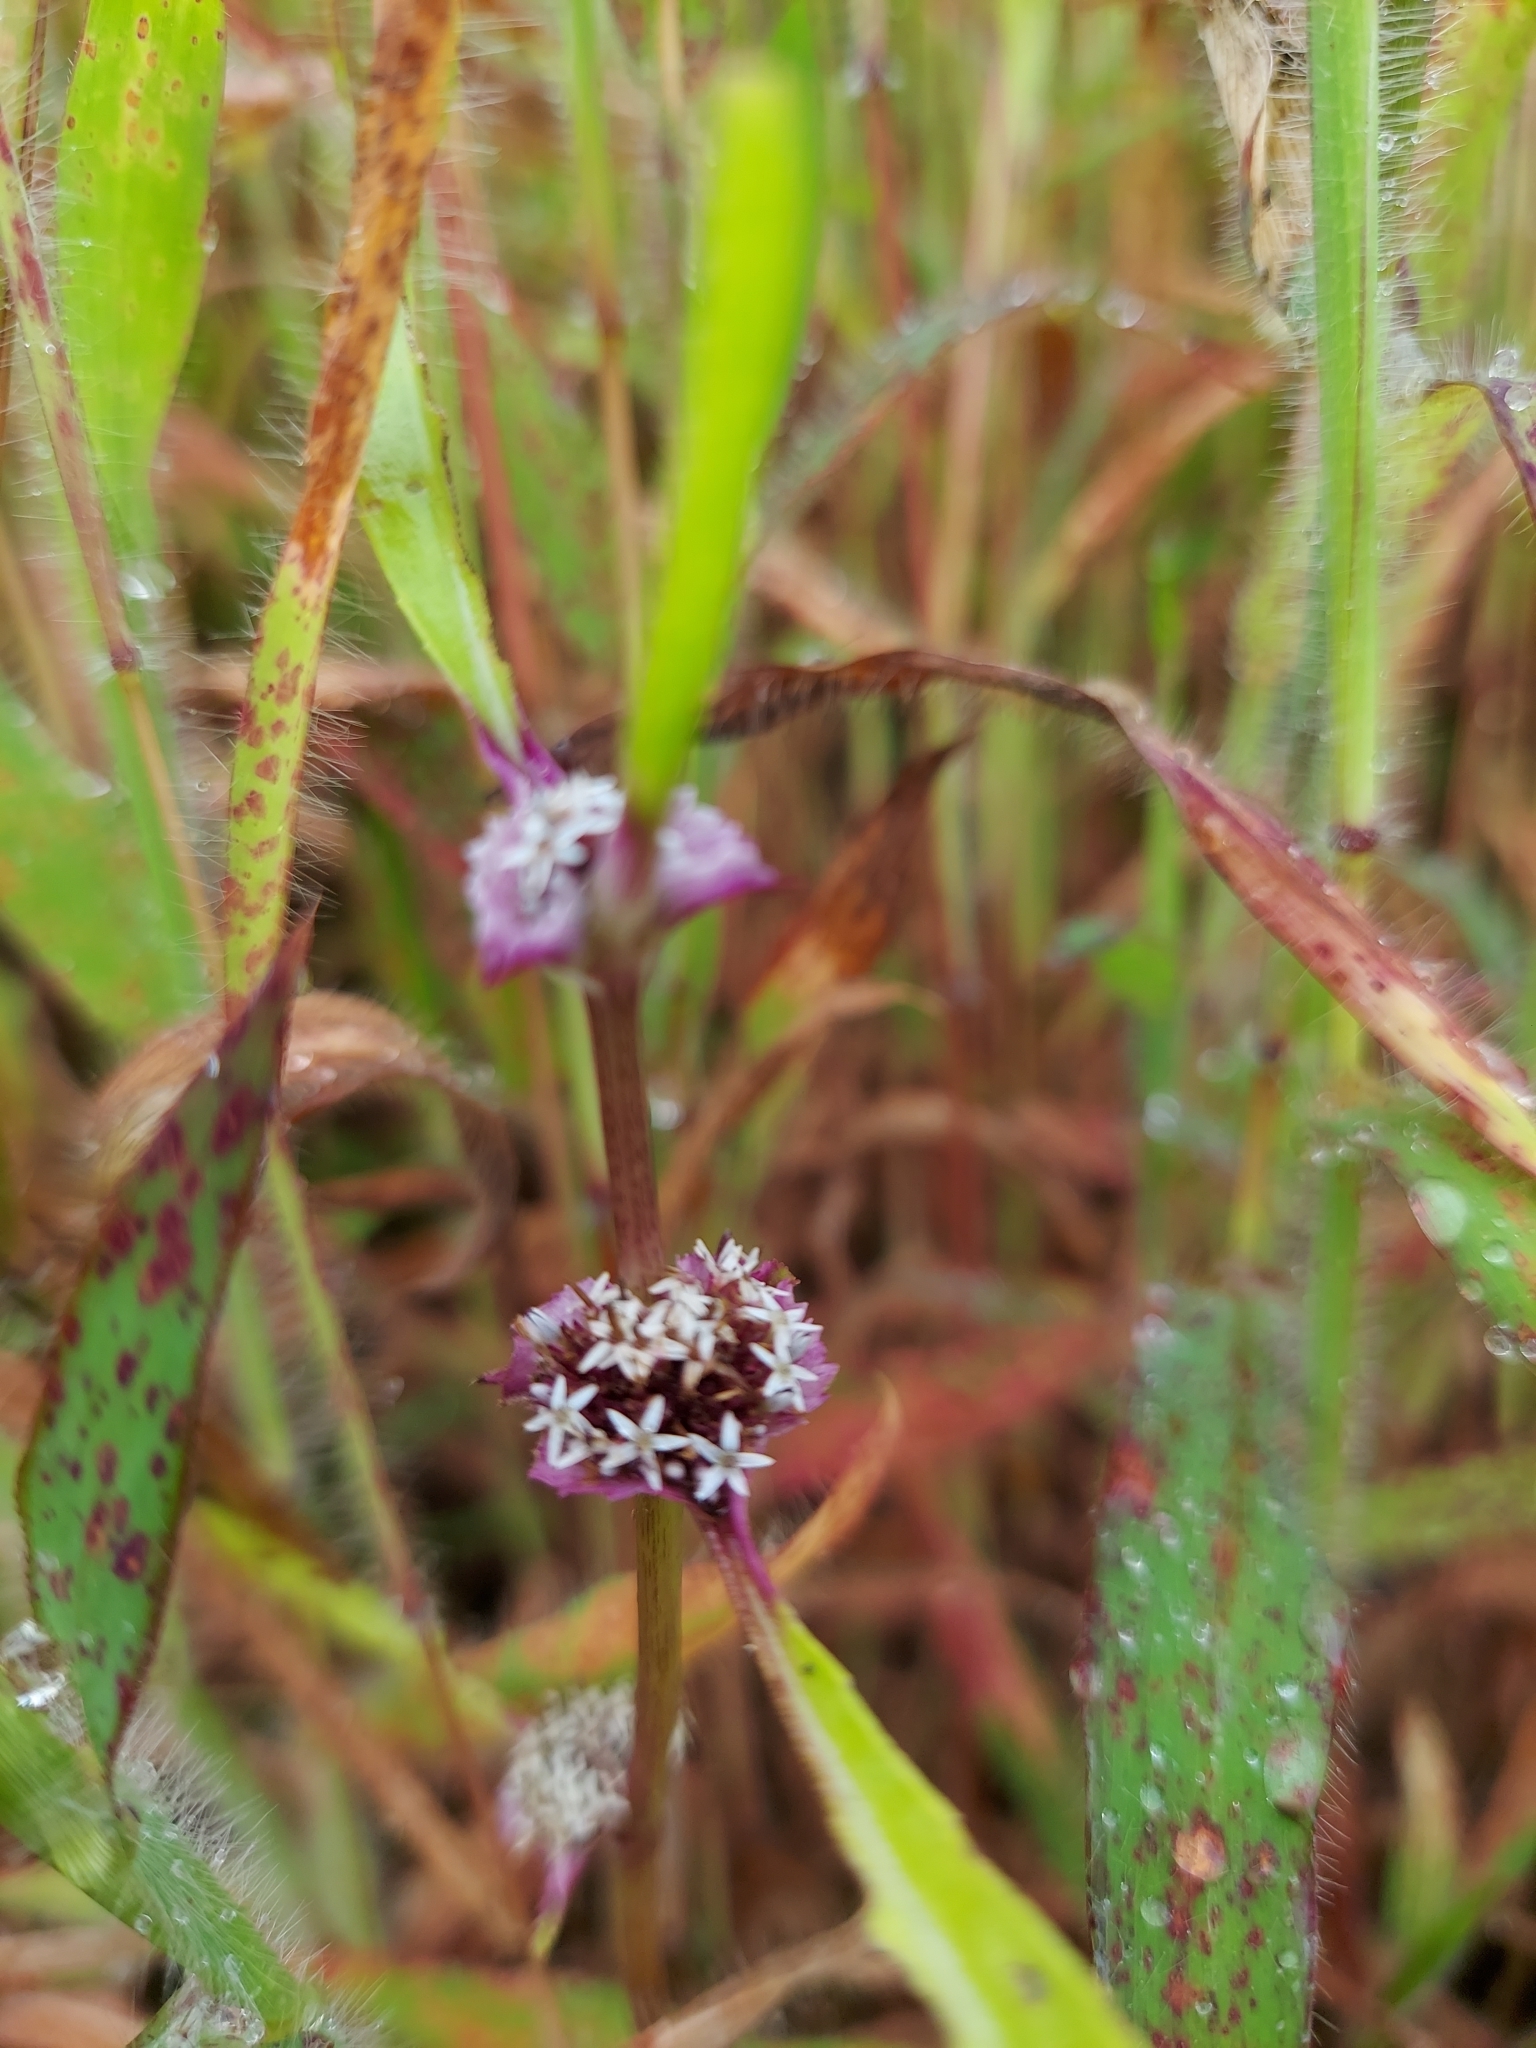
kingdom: Plantae
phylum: Tracheophyta
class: Magnoliopsida
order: Asterales
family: Asteraceae
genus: Caesulia
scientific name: Caesulia axillaris
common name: Pink node flower
